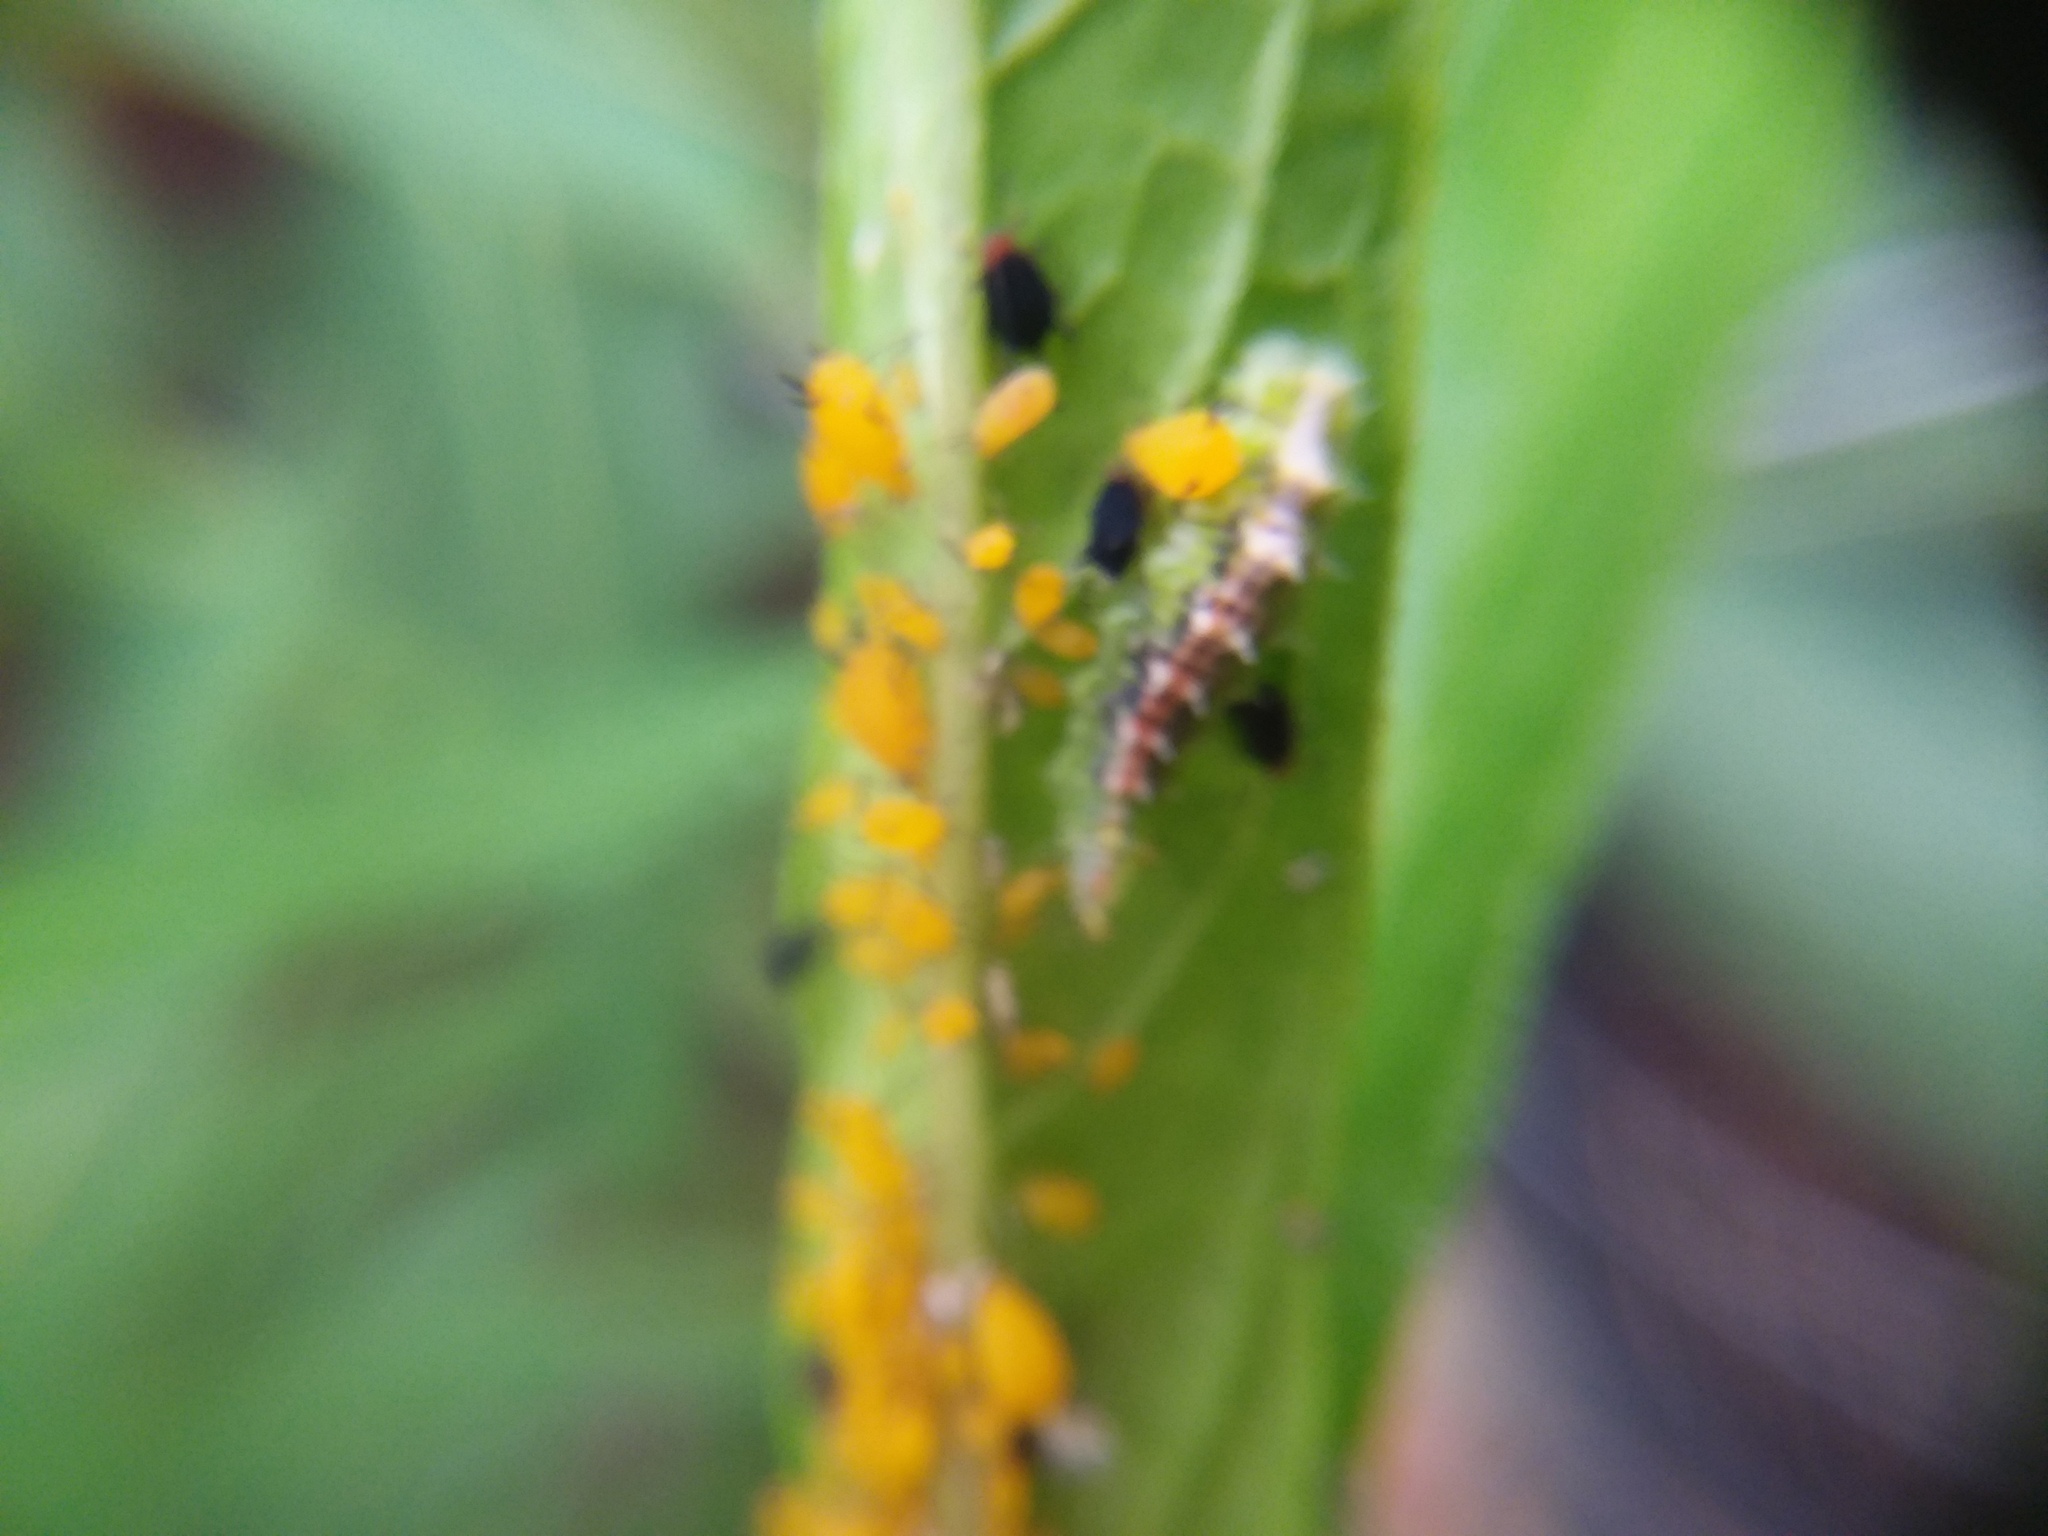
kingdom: Animalia
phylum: Arthropoda
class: Insecta
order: Hemiptera
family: Aphididae
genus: Aphis
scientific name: Aphis nerii
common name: Oleander aphid
